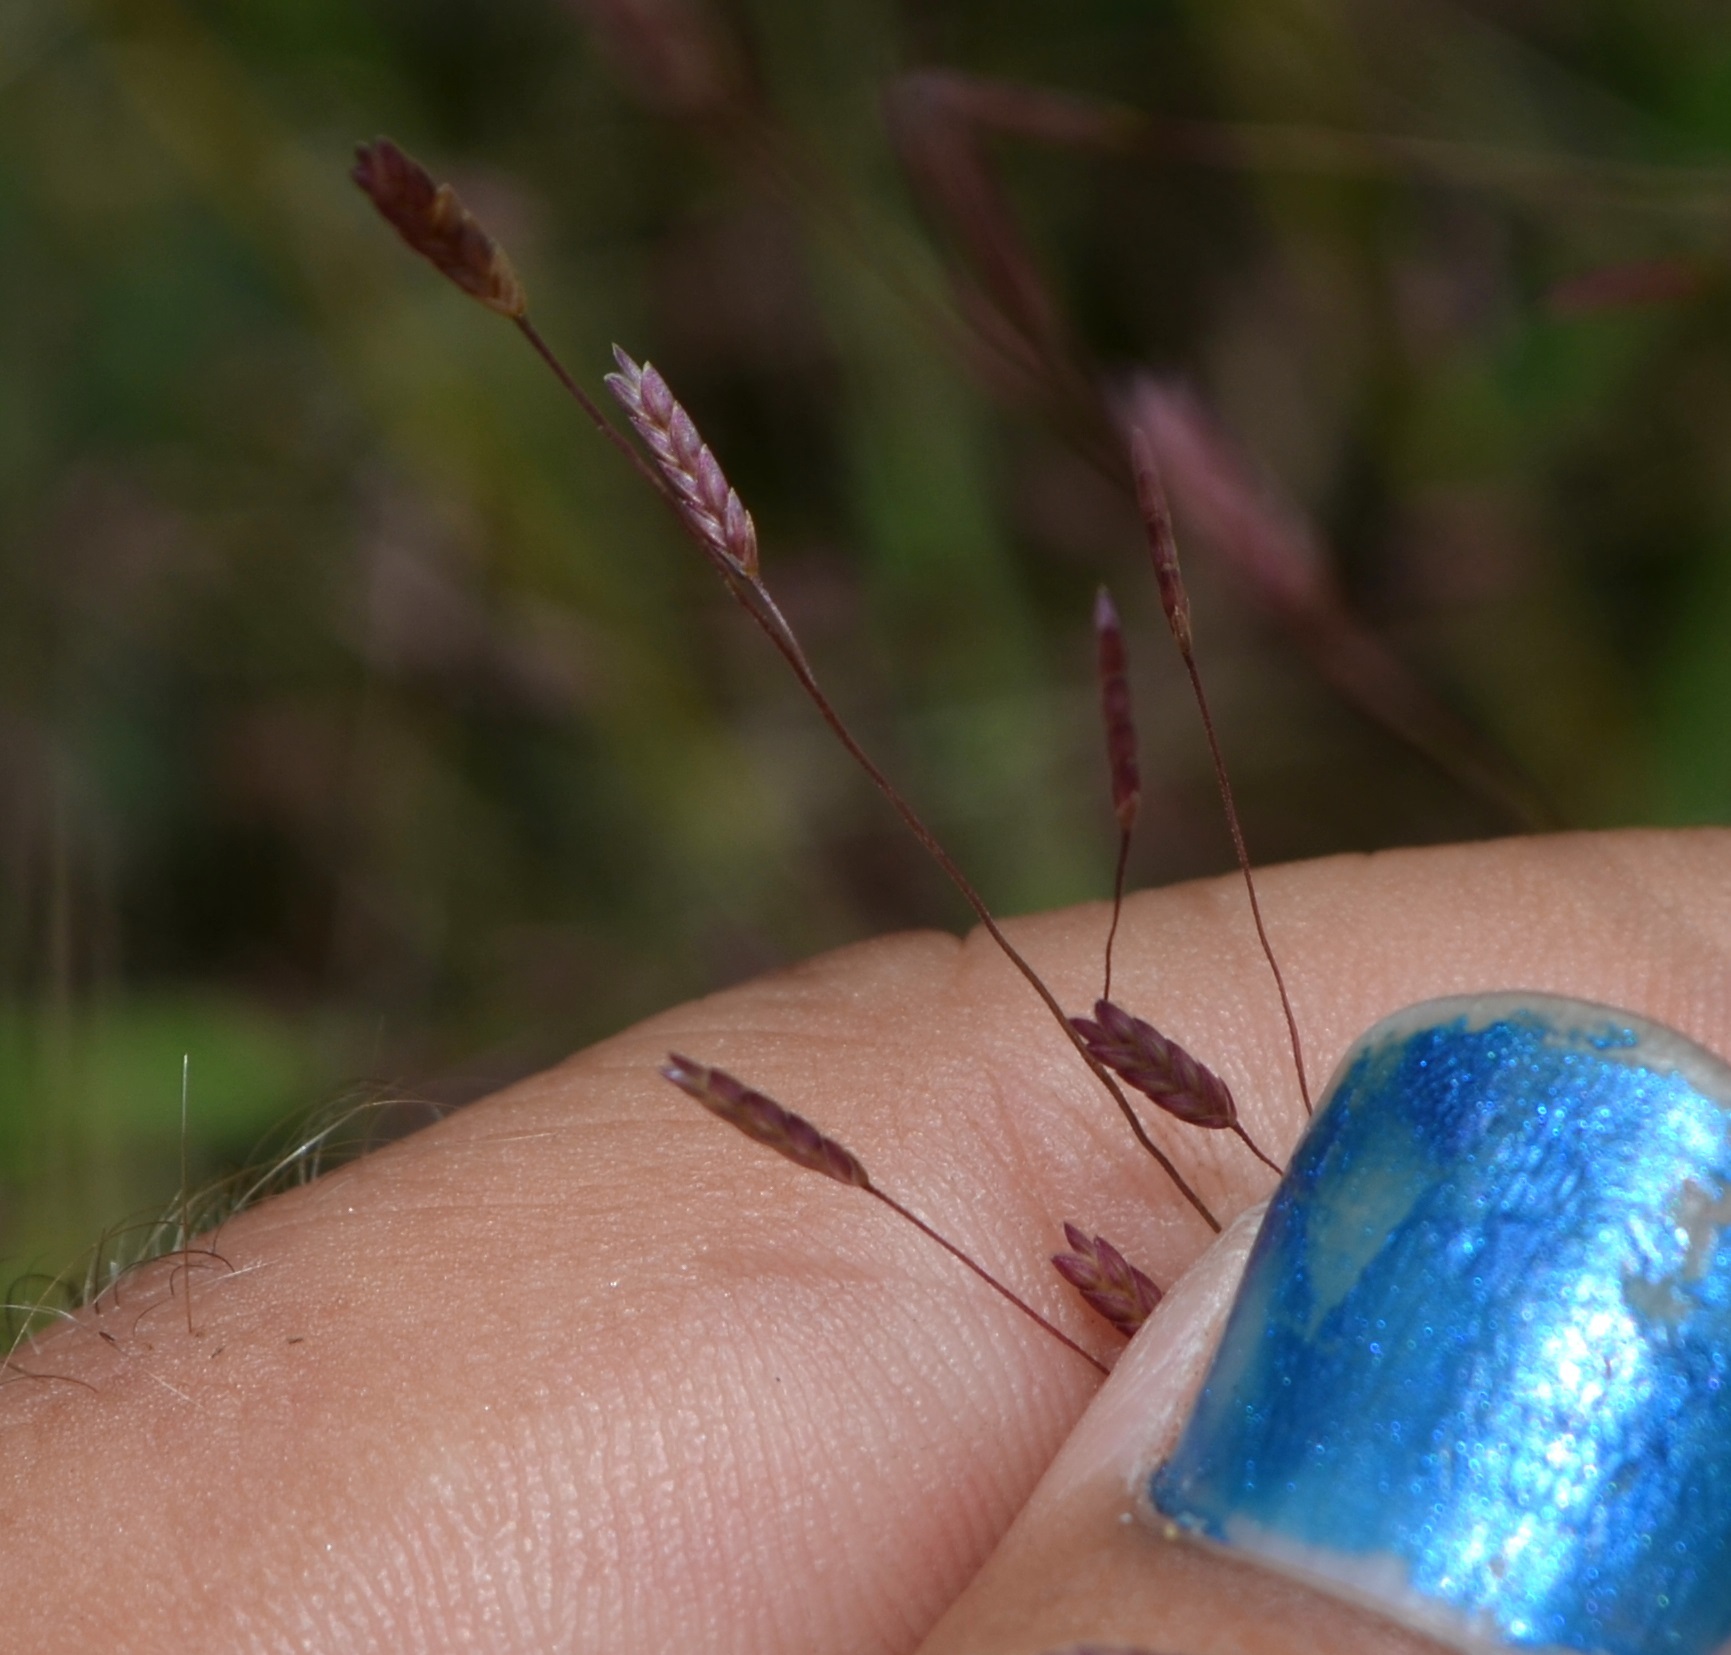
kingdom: Plantae
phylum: Tracheophyta
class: Liliopsida
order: Poales
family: Poaceae
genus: Eragrostis
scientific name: Eragrostis spectabilis
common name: Petticoat-climber
